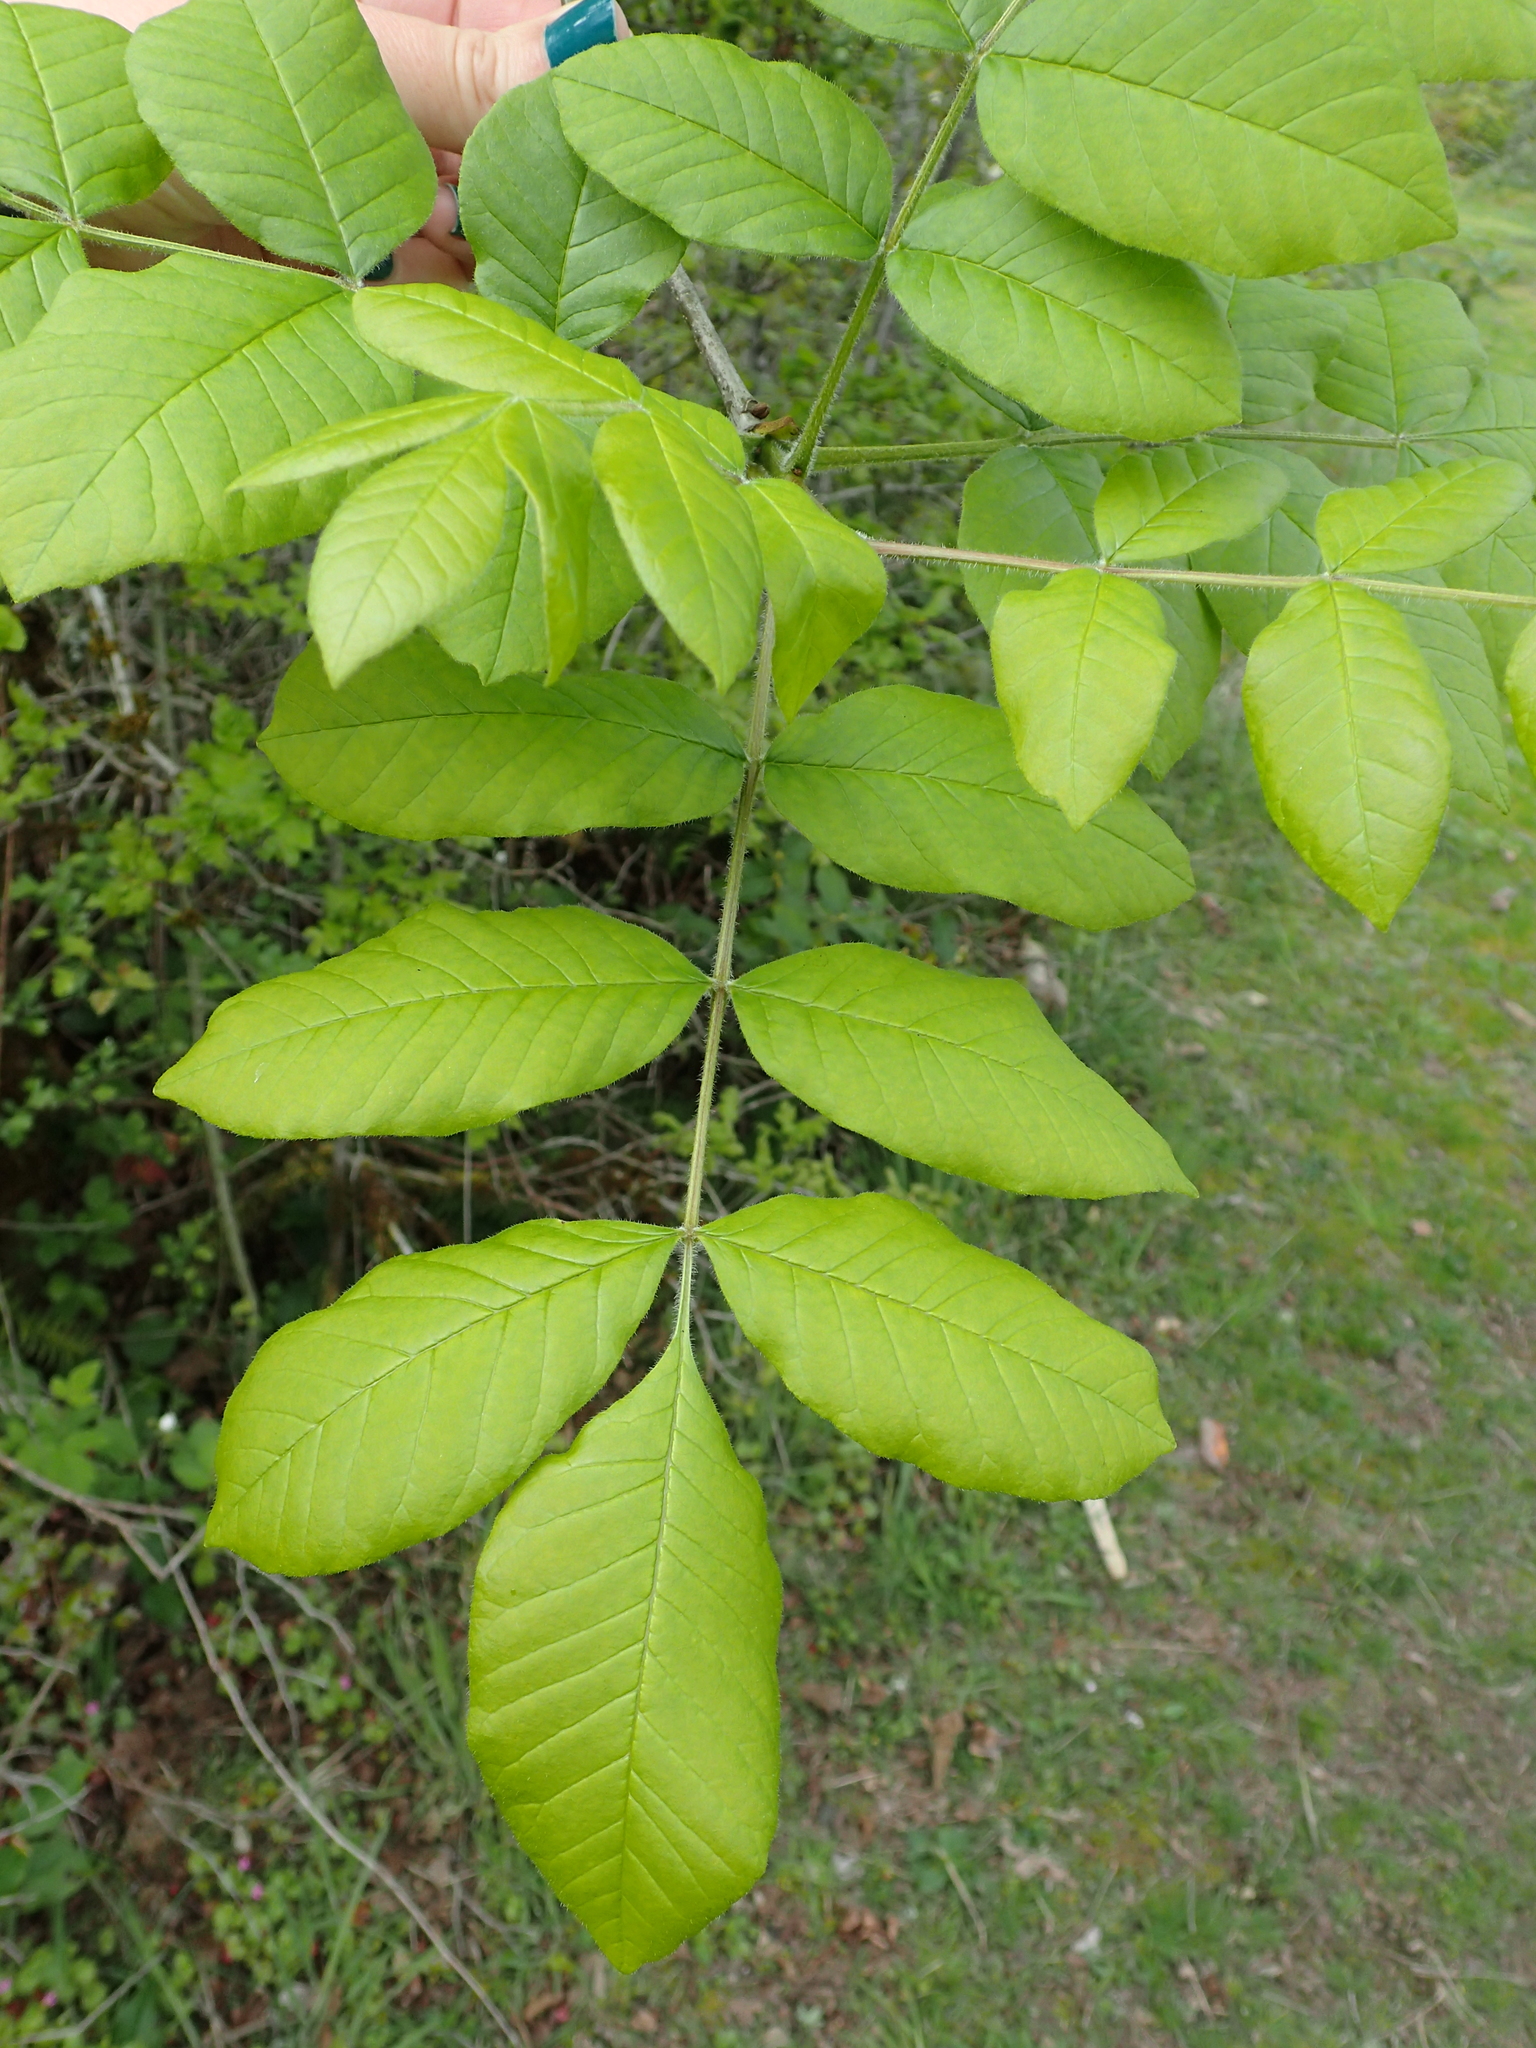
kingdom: Plantae
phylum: Tracheophyta
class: Magnoliopsida
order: Lamiales
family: Oleaceae
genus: Fraxinus
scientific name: Fraxinus latifolia
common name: Oregon ash
